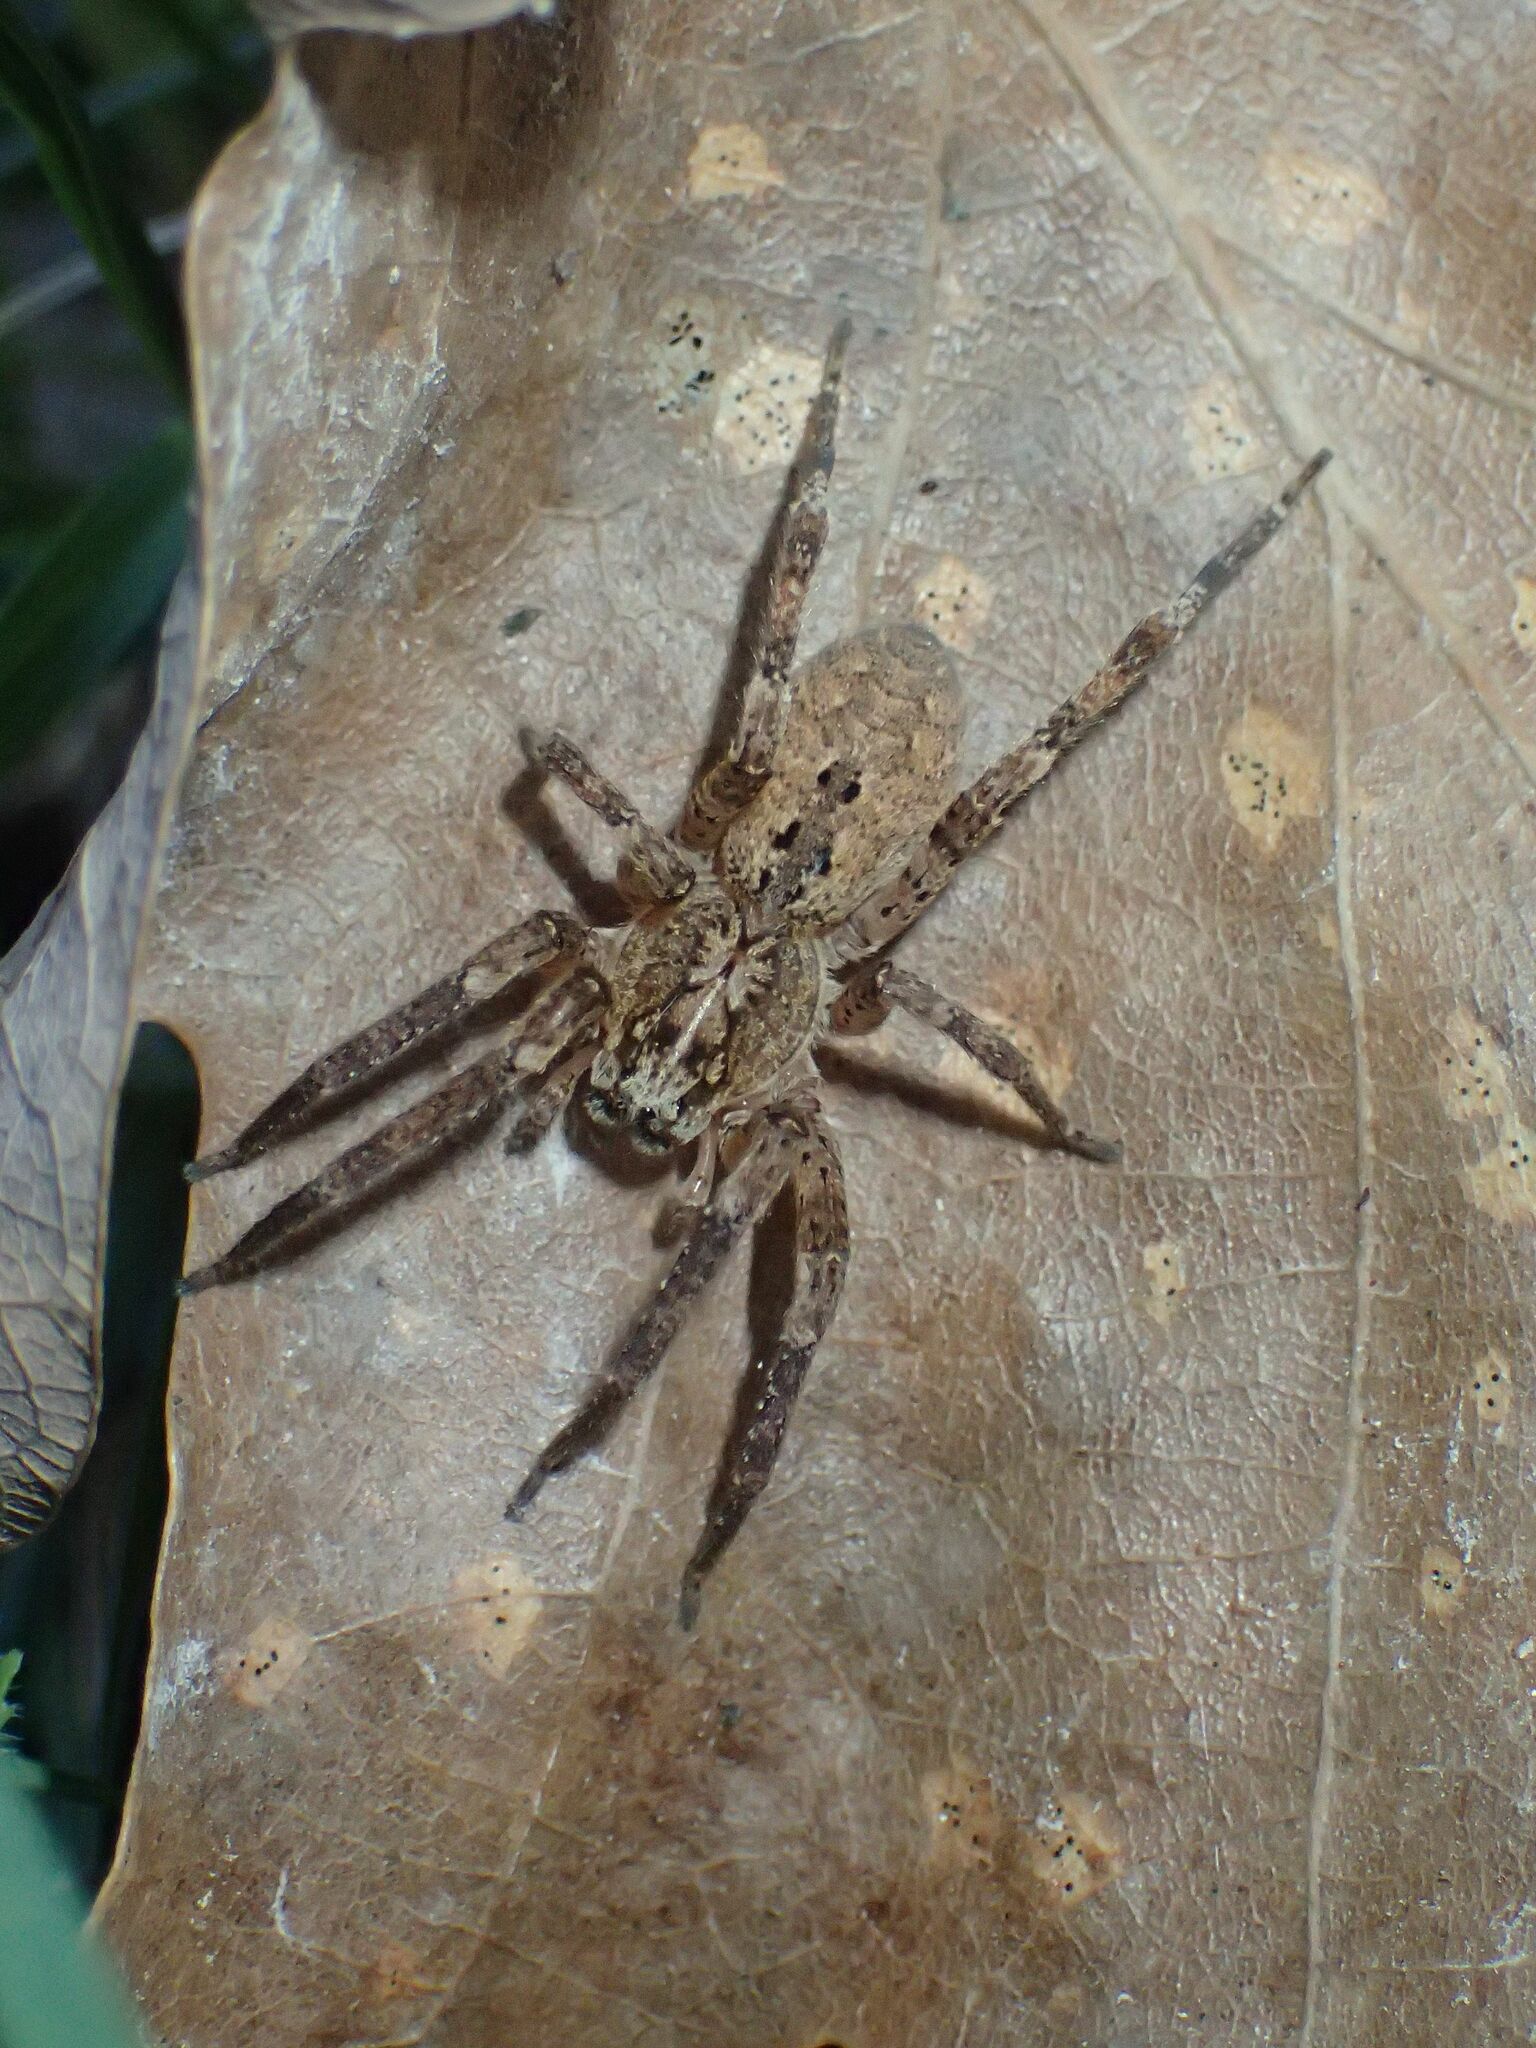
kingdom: Animalia
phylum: Arthropoda
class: Arachnida
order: Araneae
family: Zoropsidae
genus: Zoropsis
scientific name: Zoropsis spinimana
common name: Zoropsid spider
